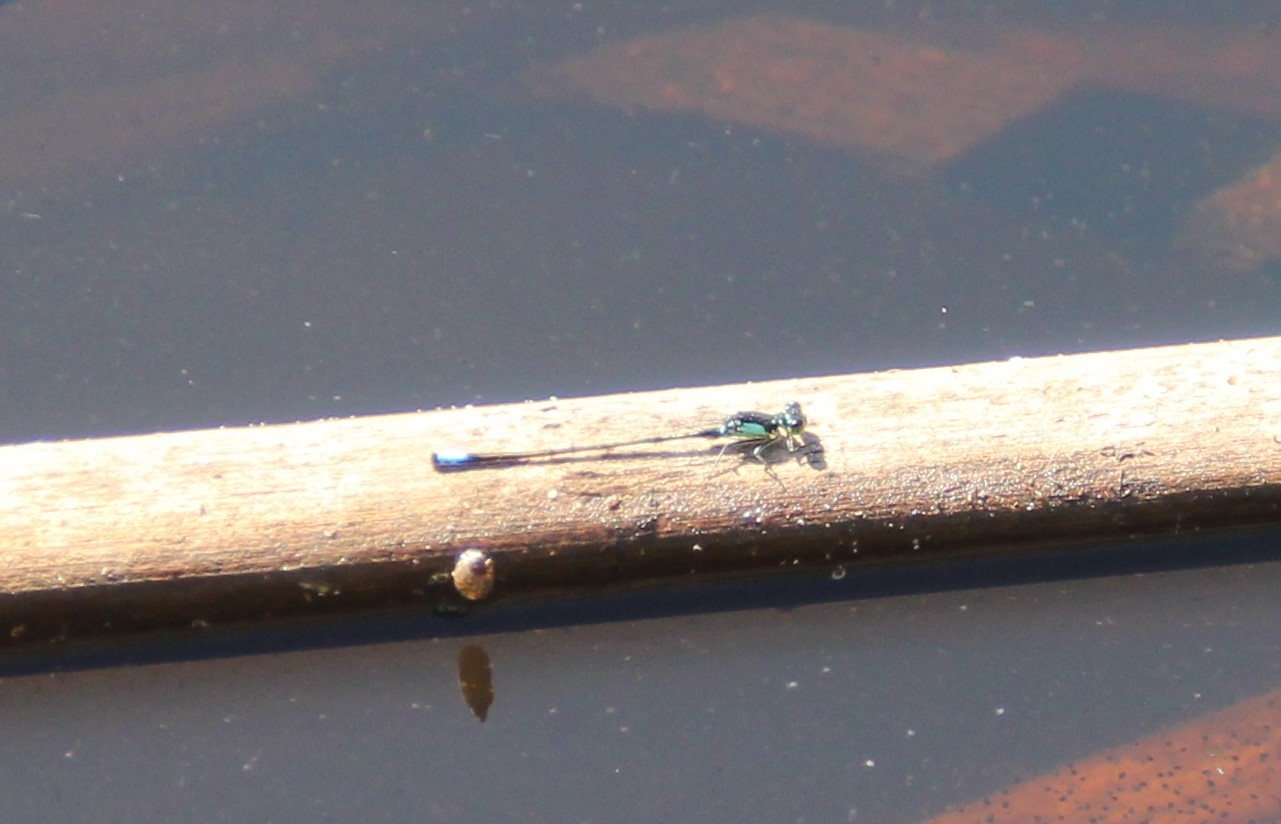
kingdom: Animalia
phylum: Arthropoda
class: Insecta
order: Odonata
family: Coenagrionidae
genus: Ischnura
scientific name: Ischnura cervula
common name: Pacific forktail
